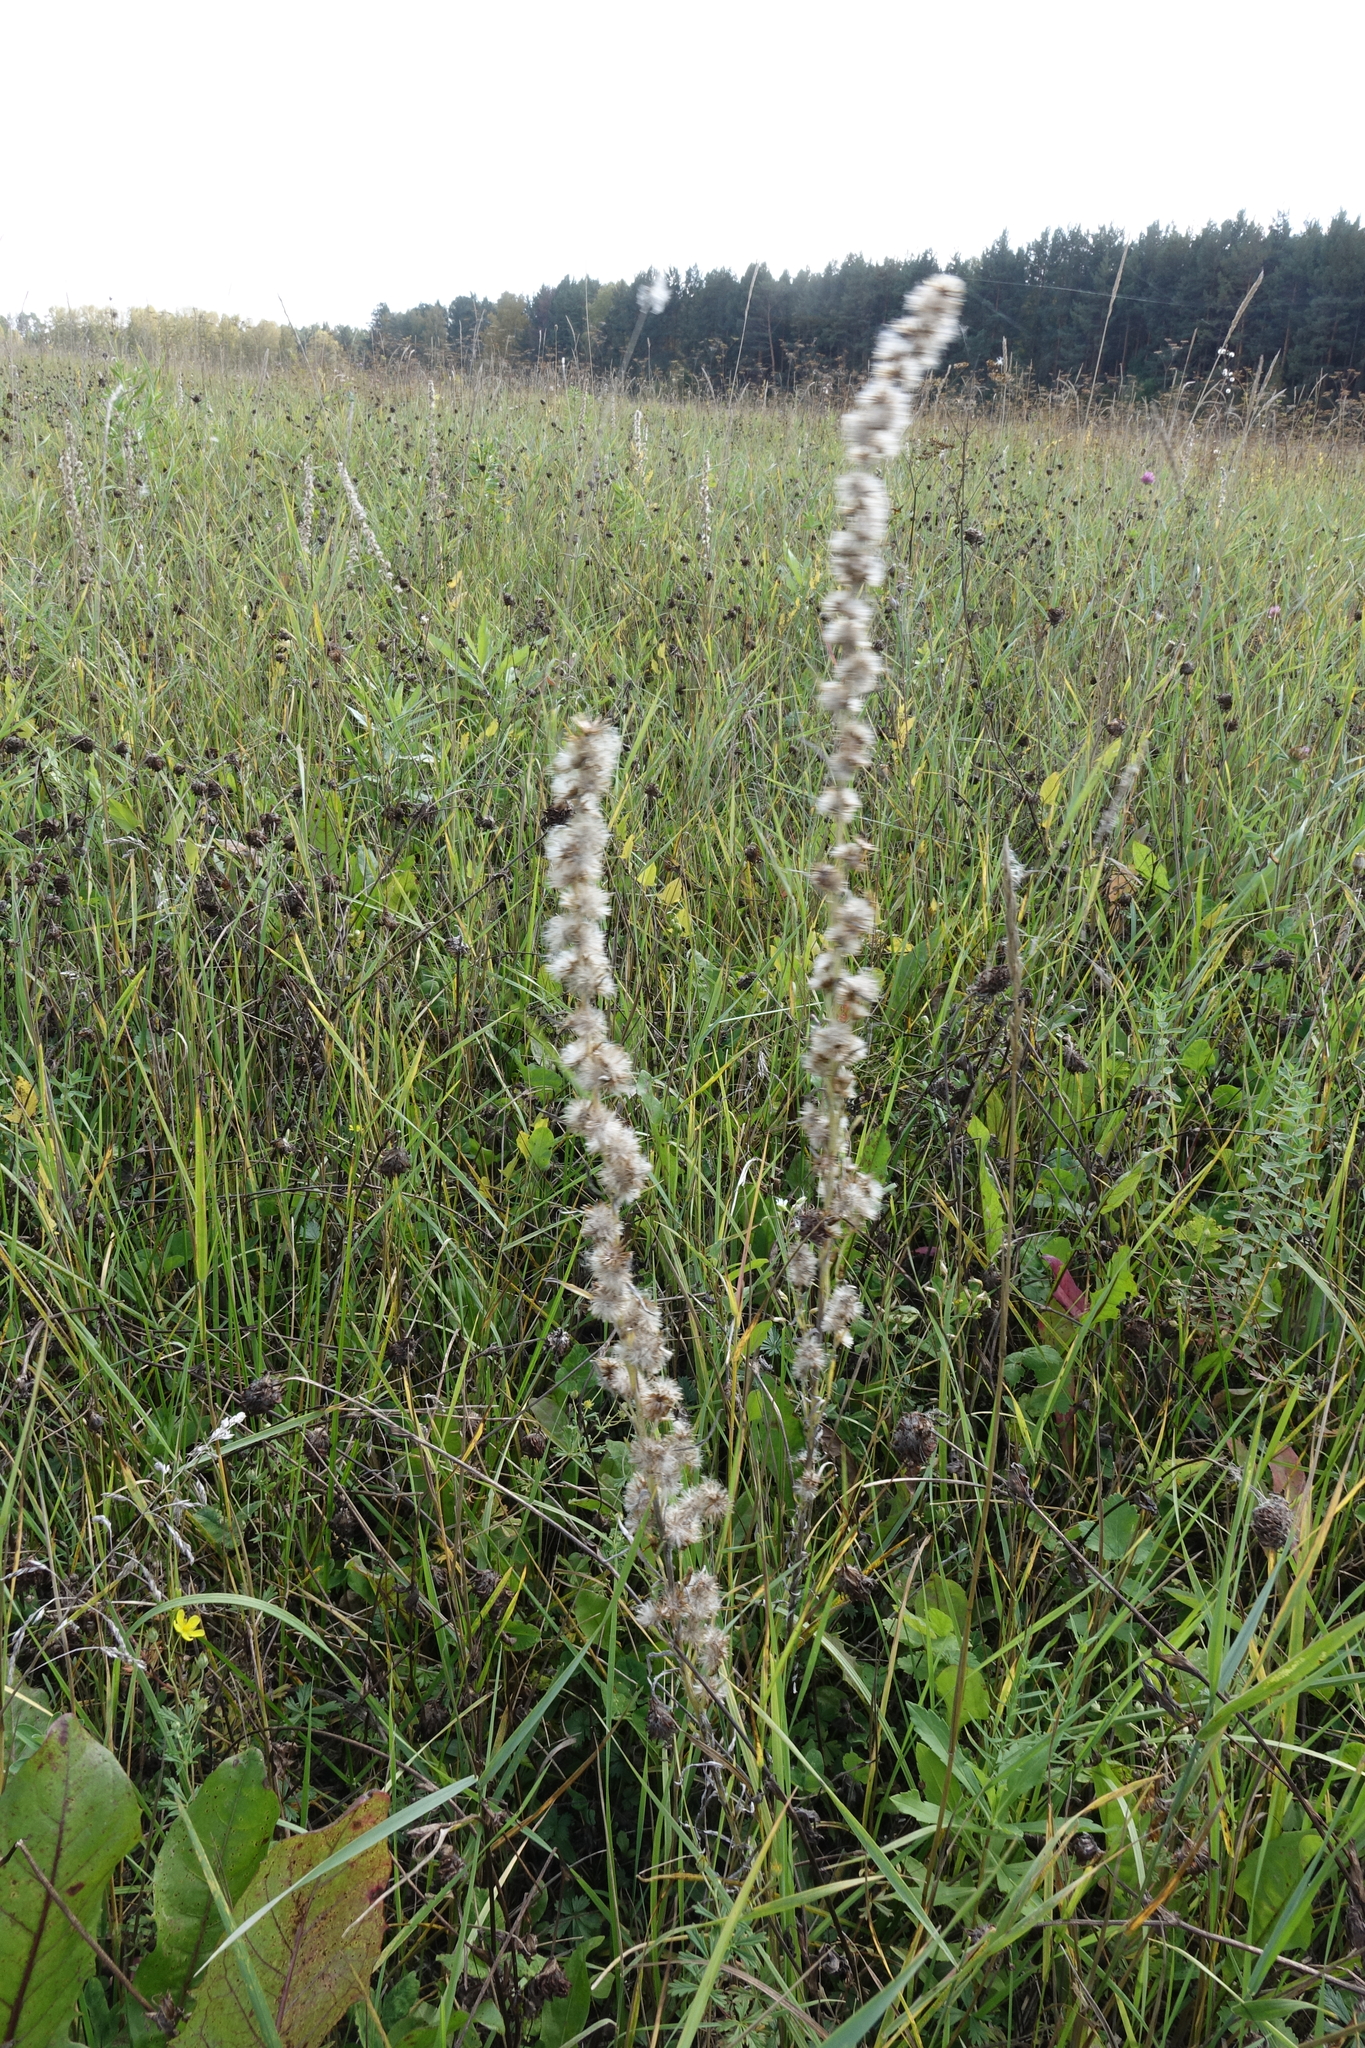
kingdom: Plantae
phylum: Tracheophyta
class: Magnoliopsida
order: Asterales
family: Asteraceae
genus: Omalotheca
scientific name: Omalotheca sylvatica
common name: Heath cudweed
